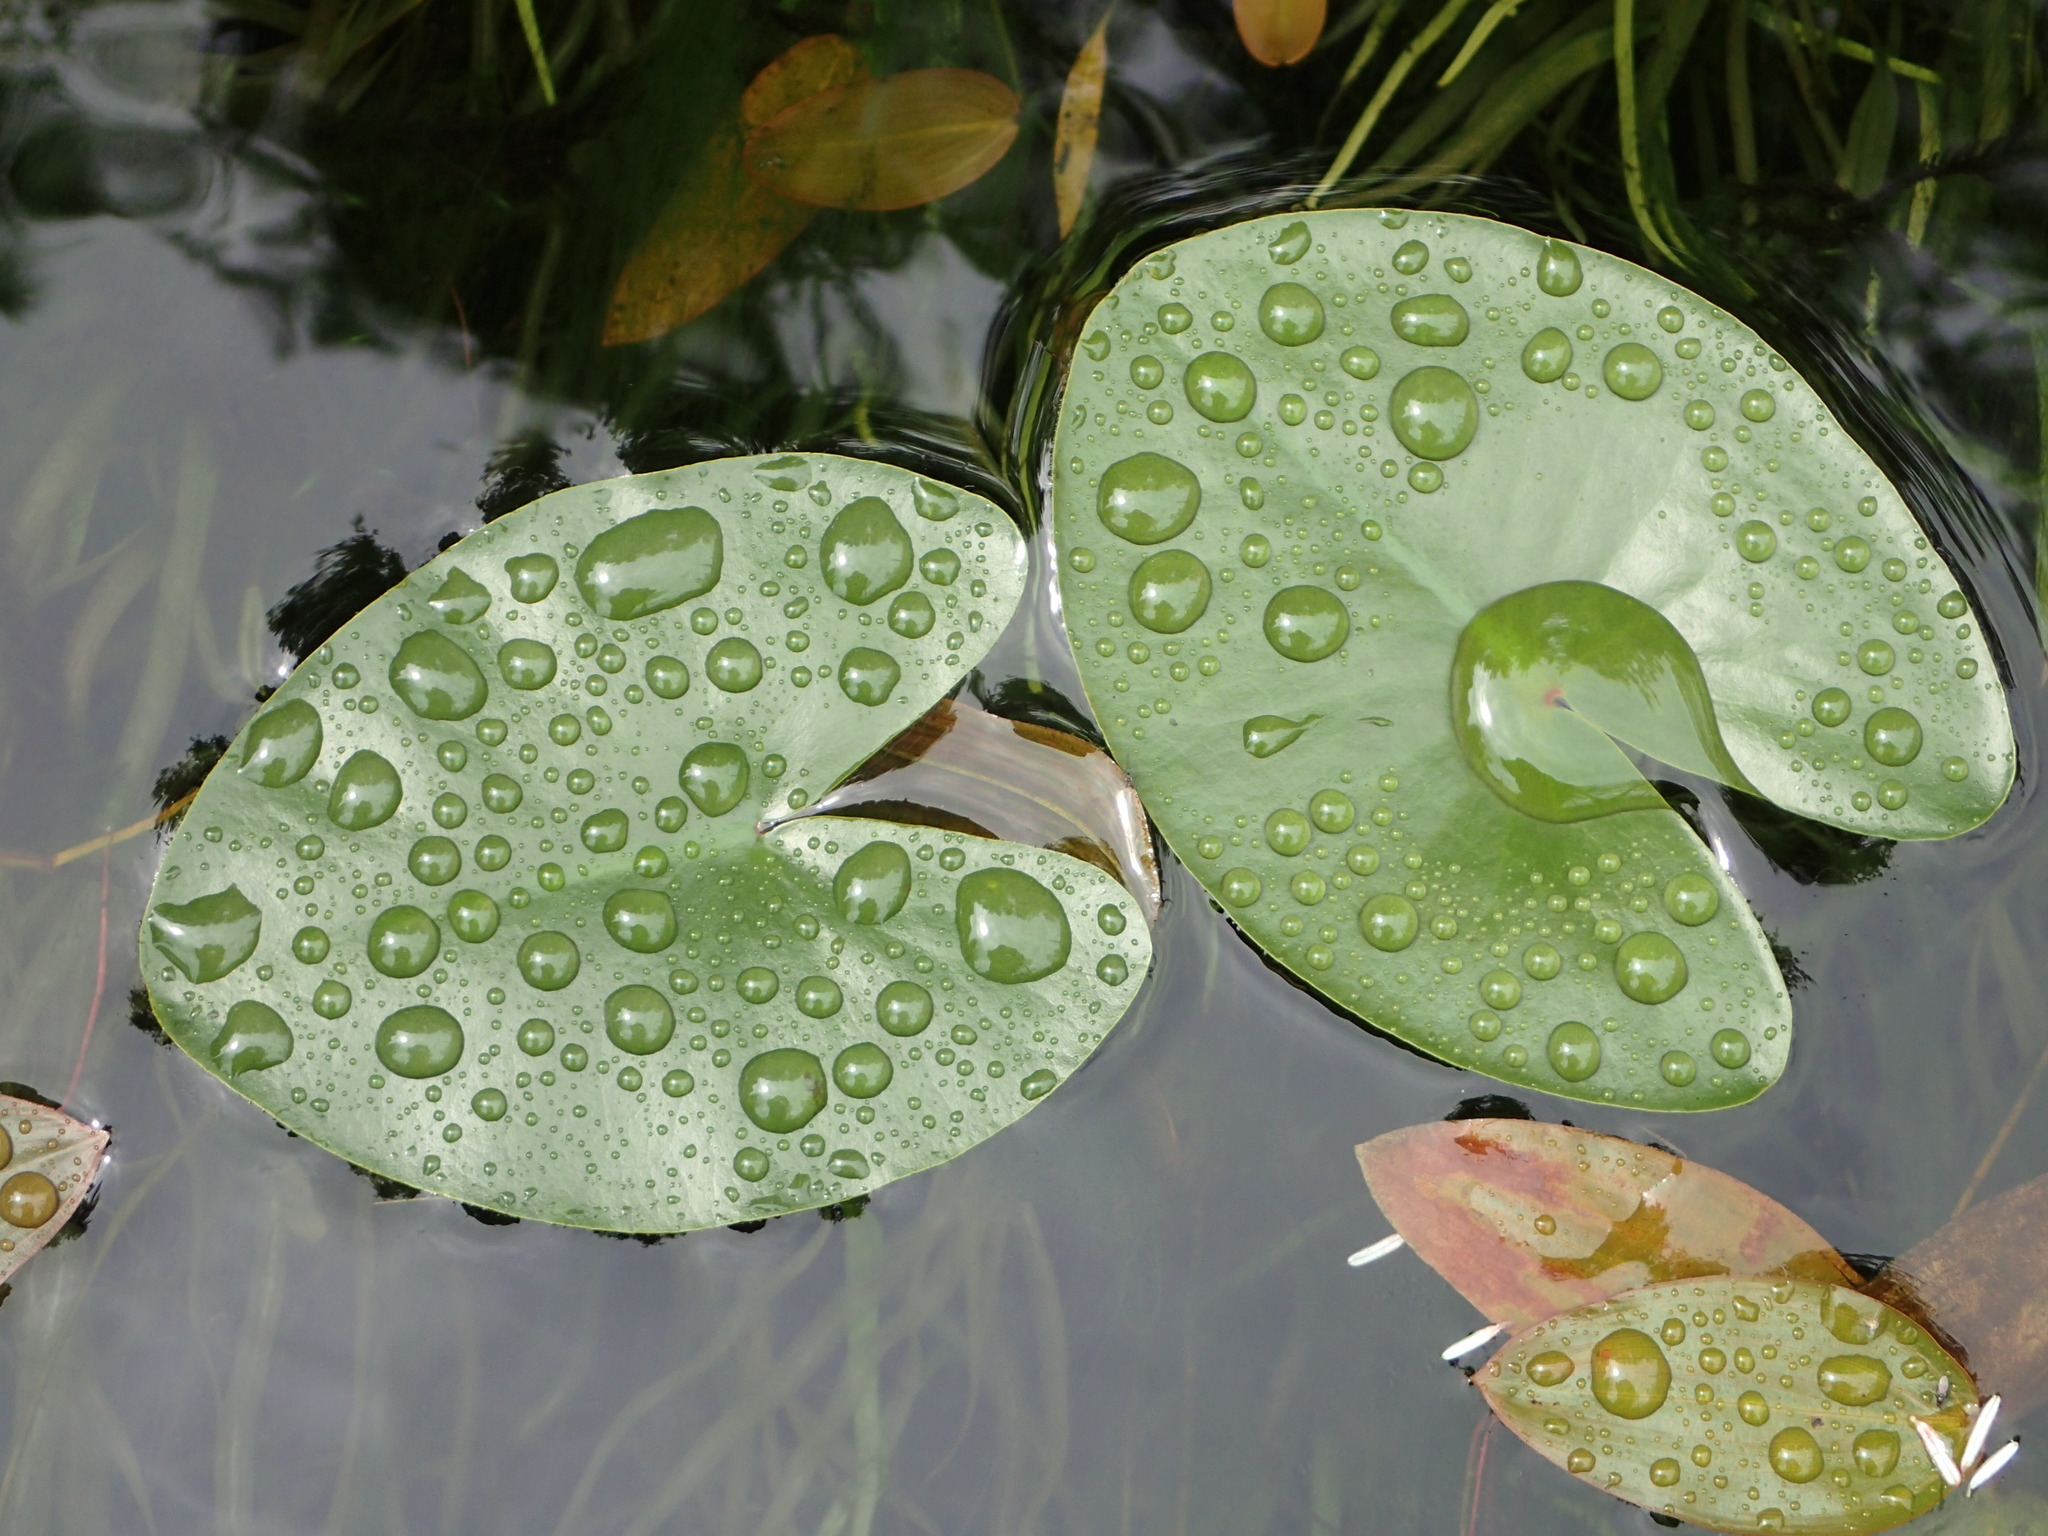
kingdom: Plantae
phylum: Tracheophyta
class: Magnoliopsida
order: Nymphaeales
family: Nymphaeaceae
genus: Nuphar
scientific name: Nuphar polysepala
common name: Rocky mountain cow-lily
